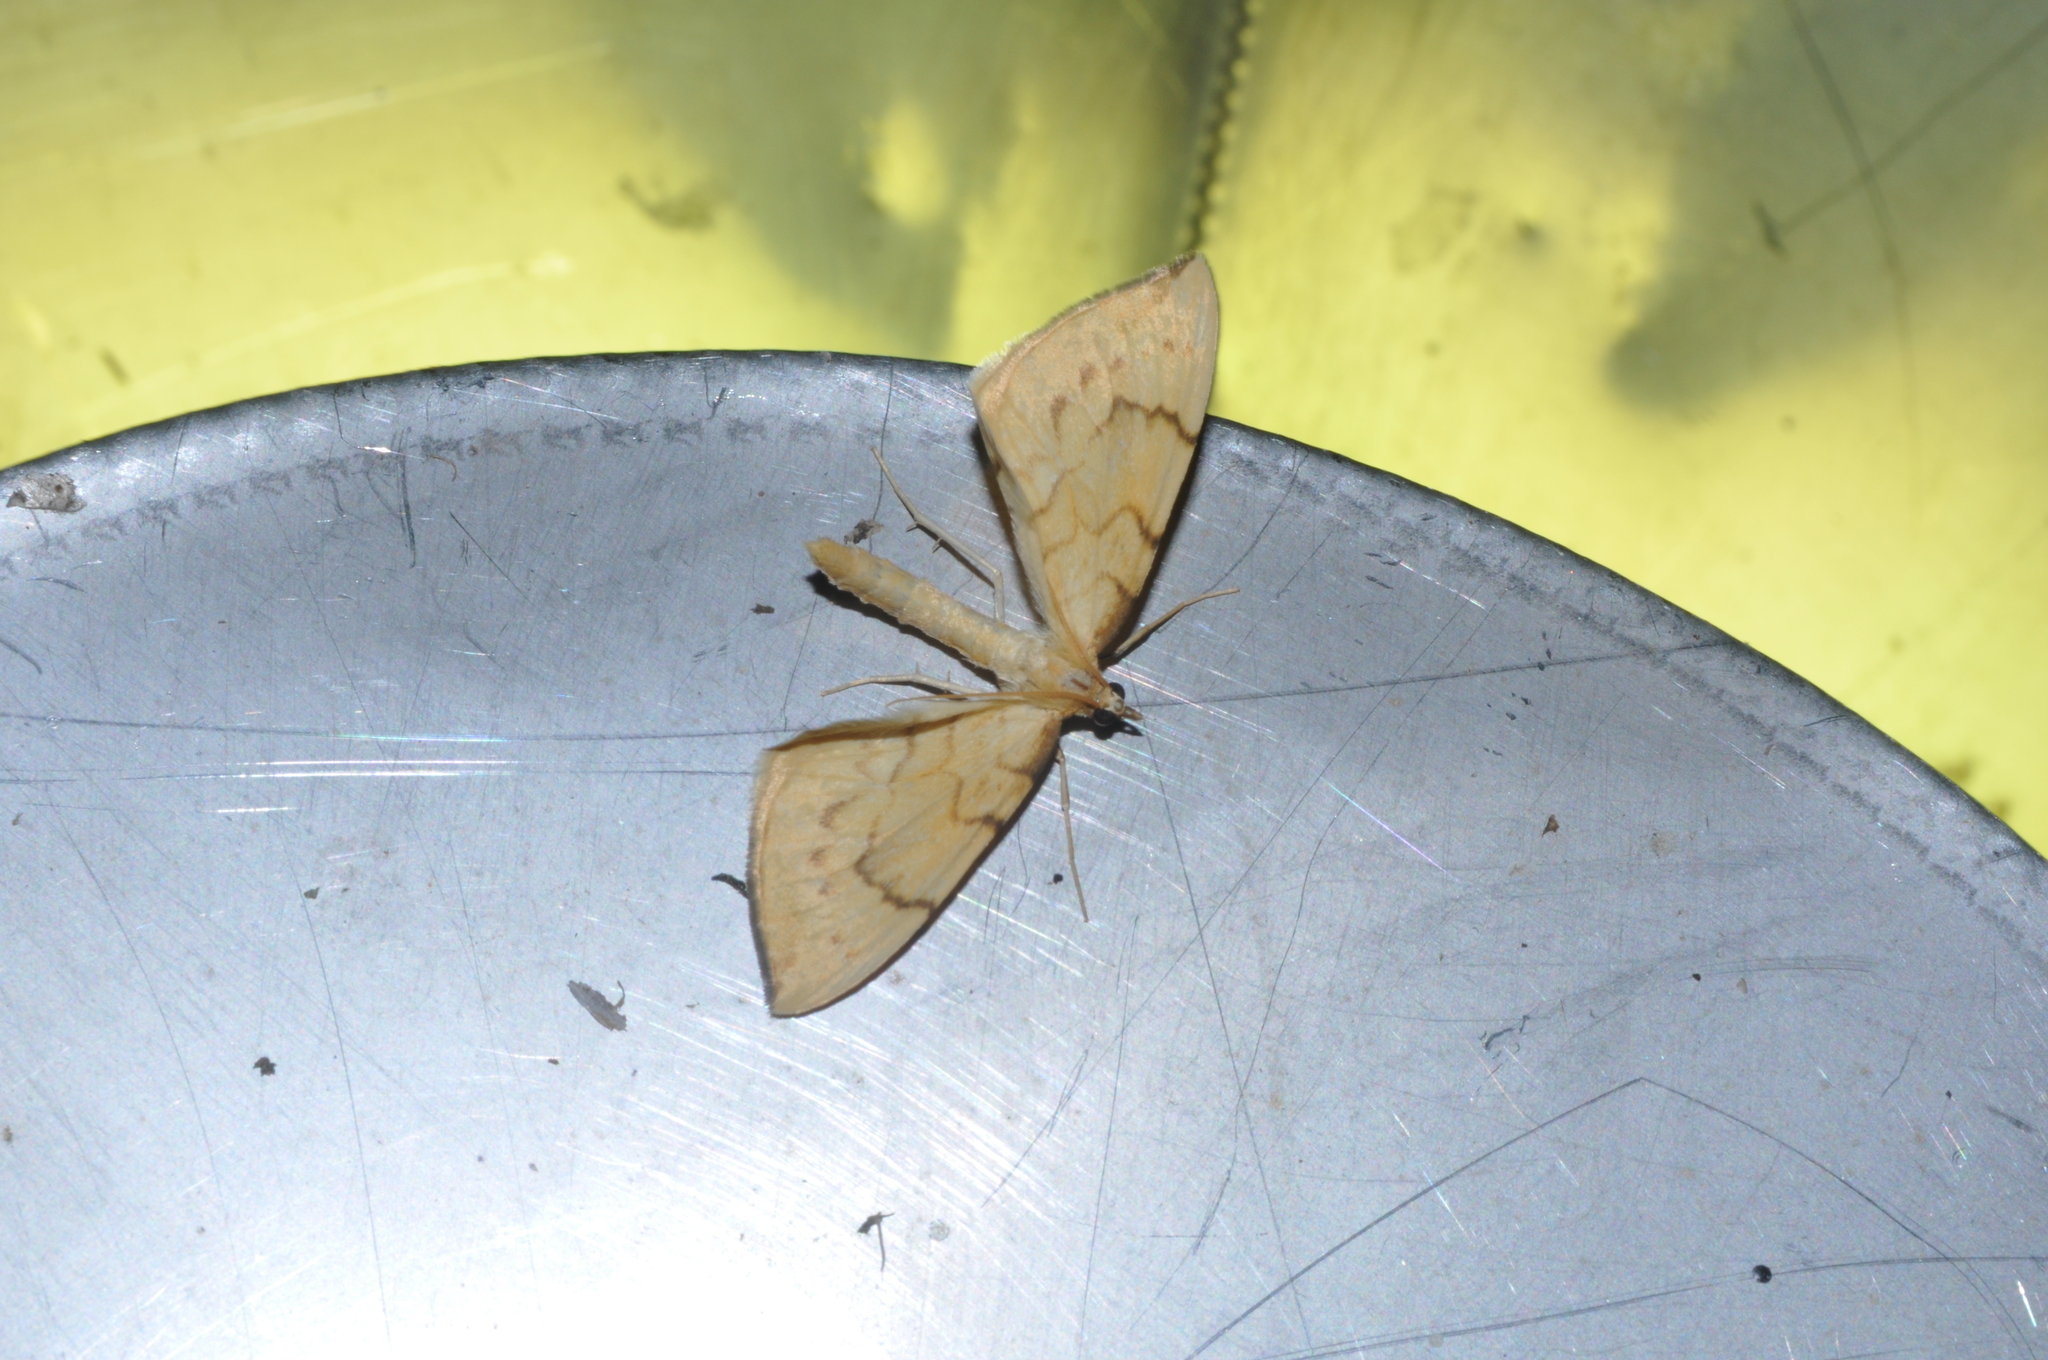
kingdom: Animalia
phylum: Arthropoda
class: Insecta
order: Lepidoptera
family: Geometridae
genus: Eulithis
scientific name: Eulithis pyraliata
